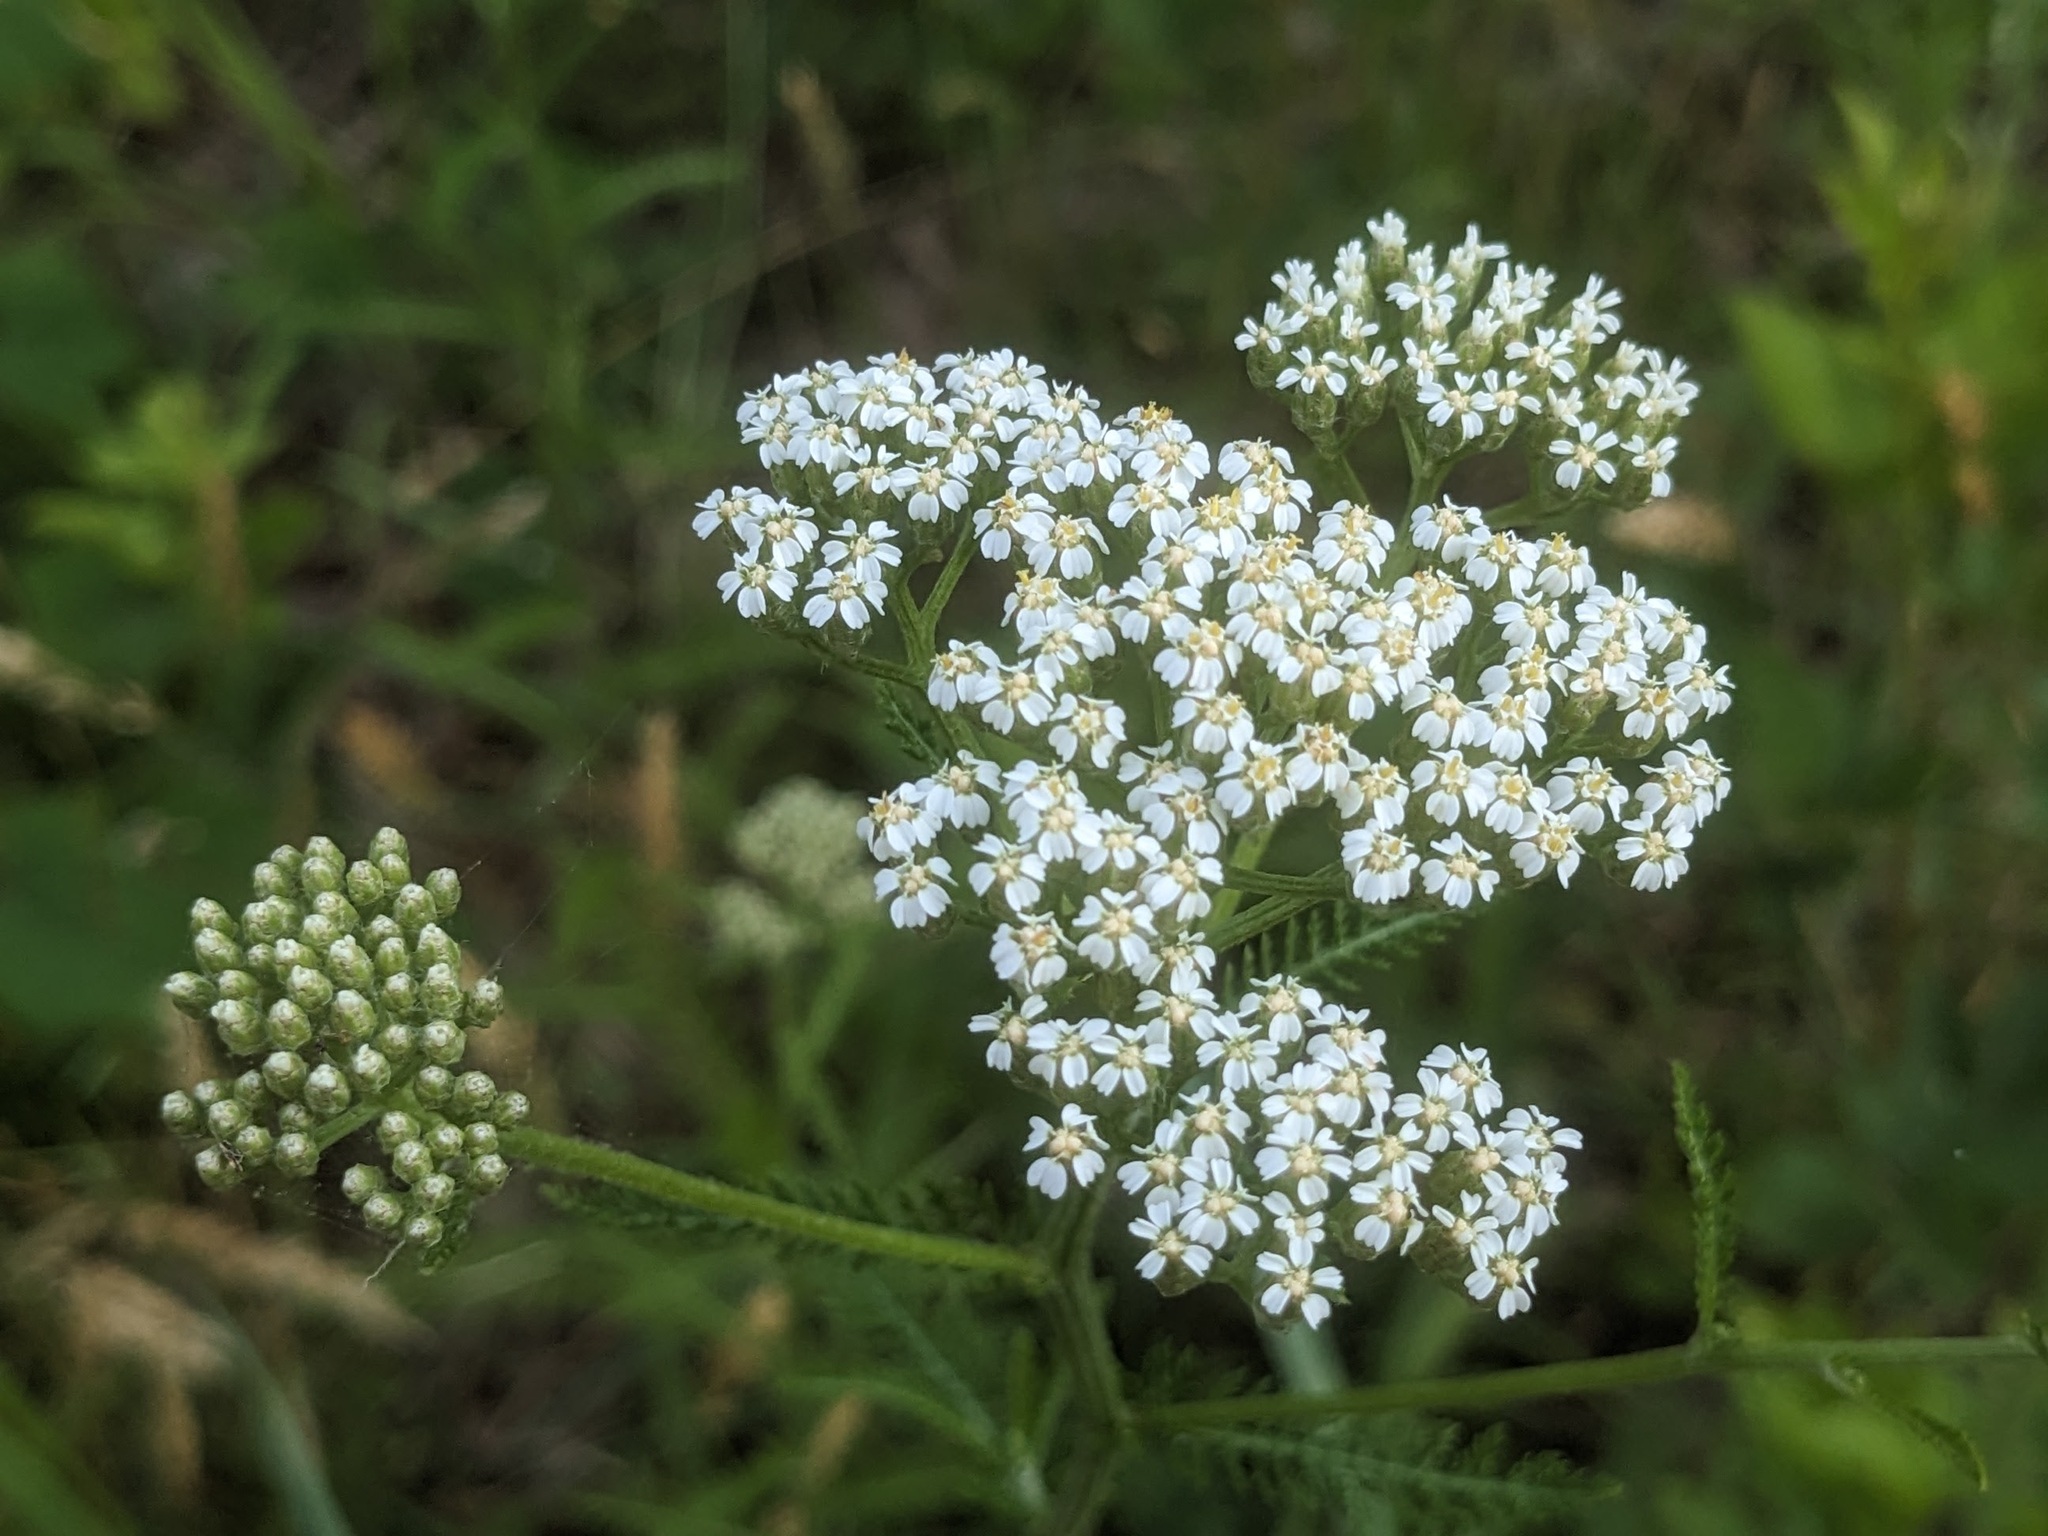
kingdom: Plantae
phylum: Tracheophyta
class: Magnoliopsida
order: Asterales
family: Asteraceae
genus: Achillea
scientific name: Achillea millefolium
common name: Yarrow
